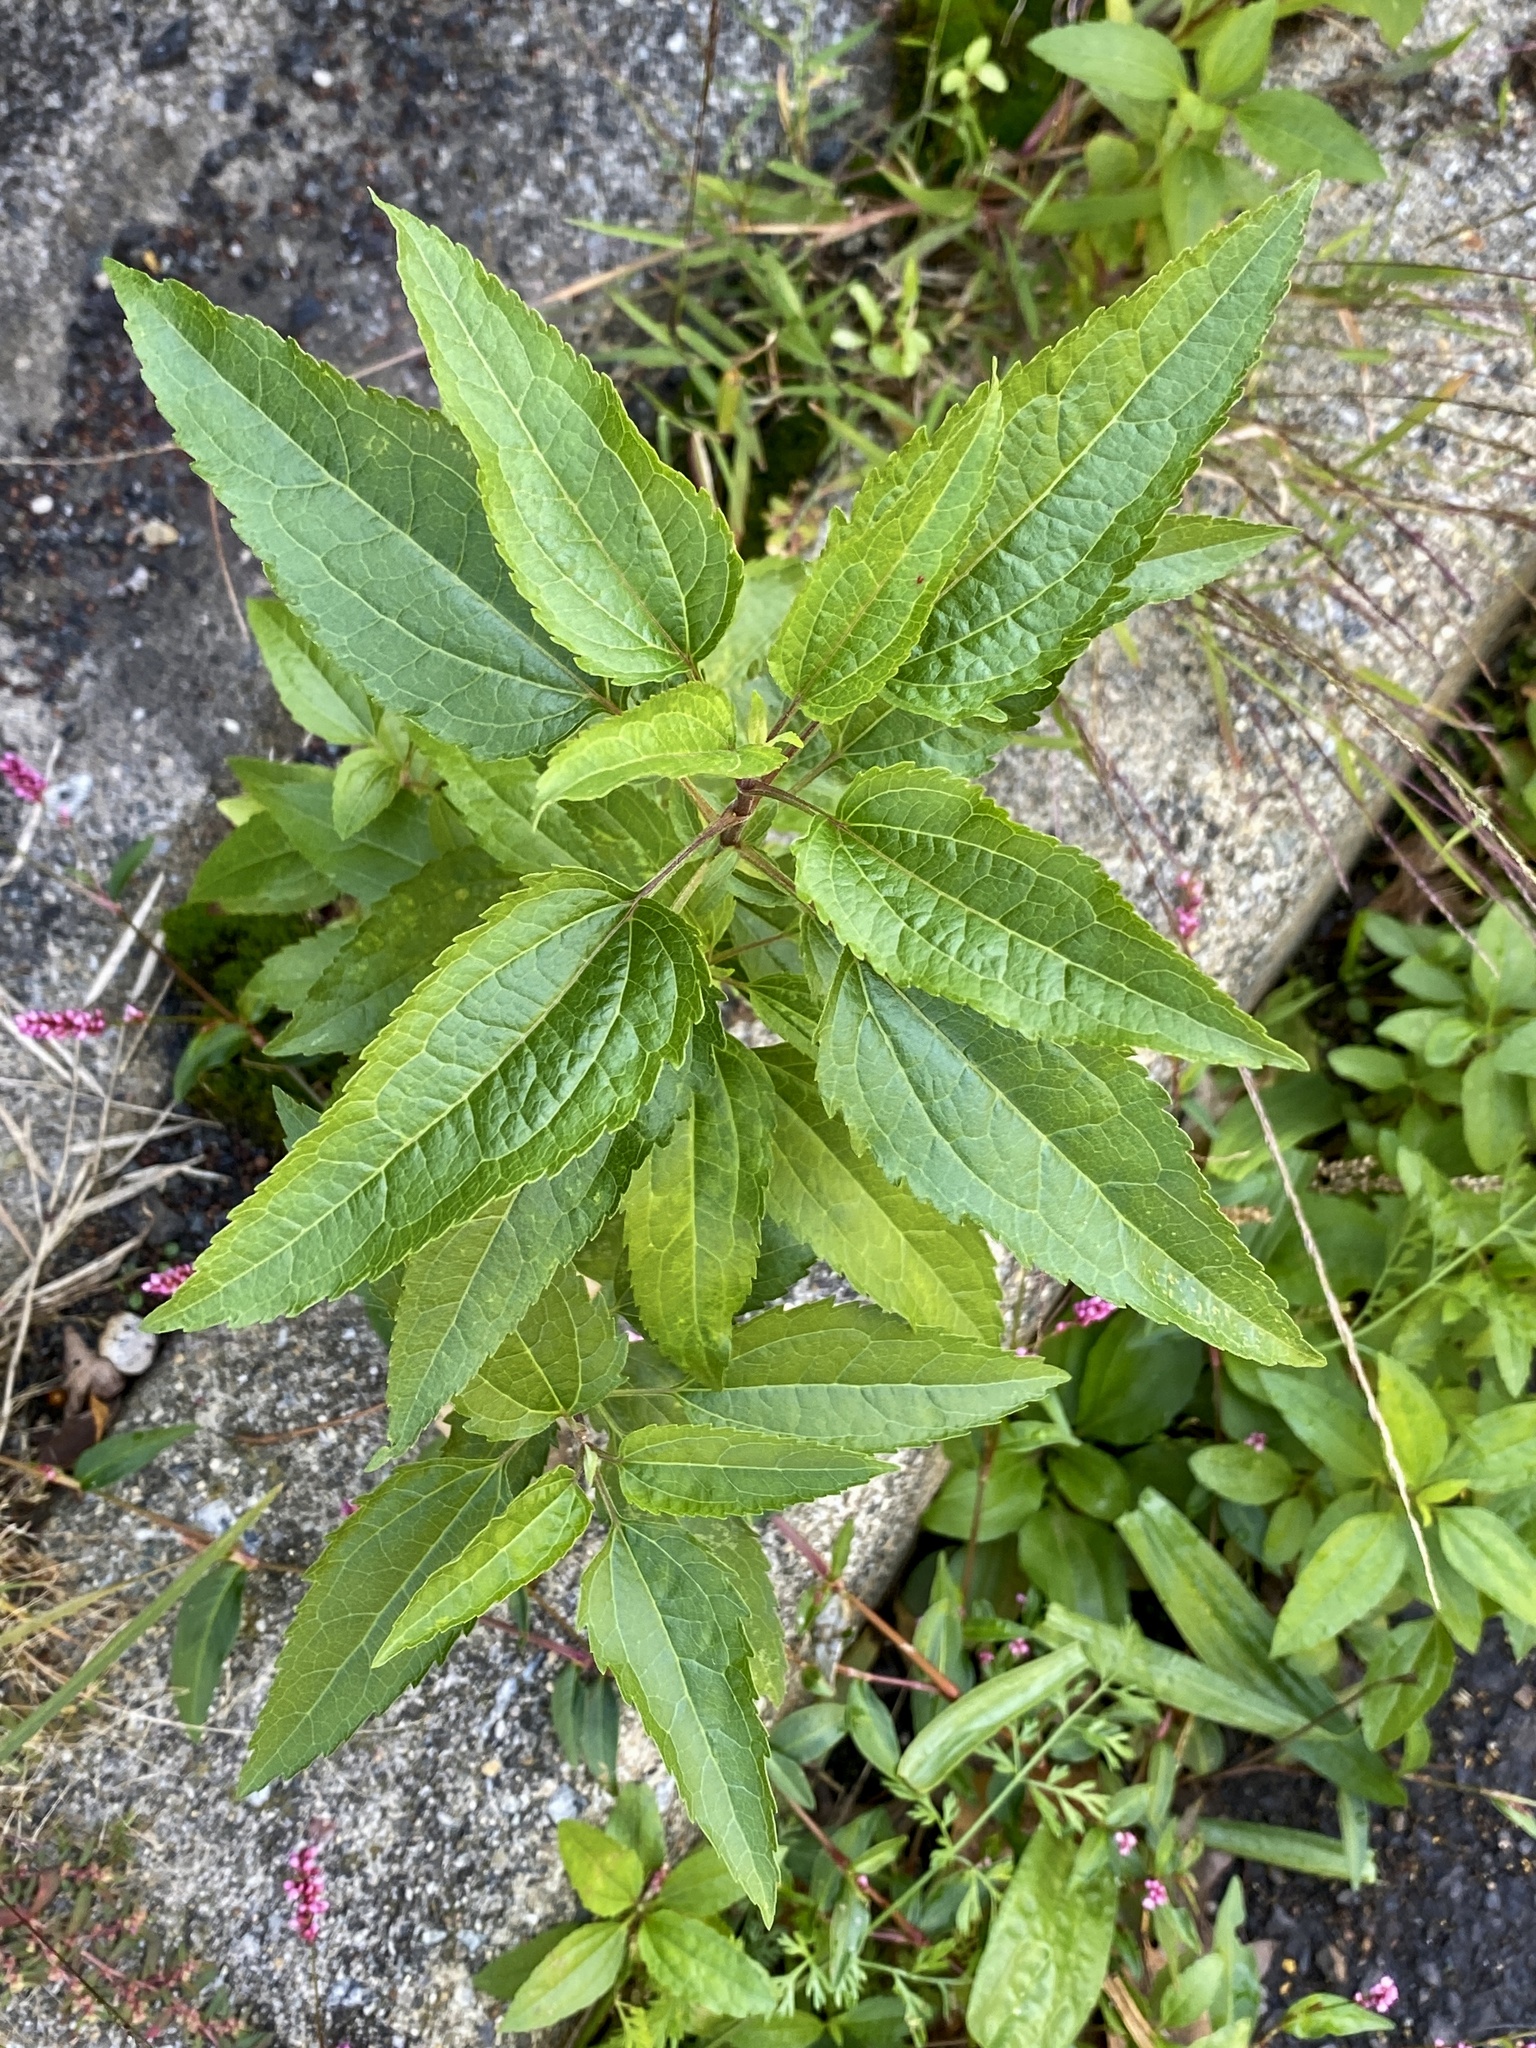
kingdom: Plantae
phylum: Tracheophyta
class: Magnoliopsida
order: Asterales
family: Asteraceae
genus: Eupatorium
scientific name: Eupatorium serotinum
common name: Late boneset
